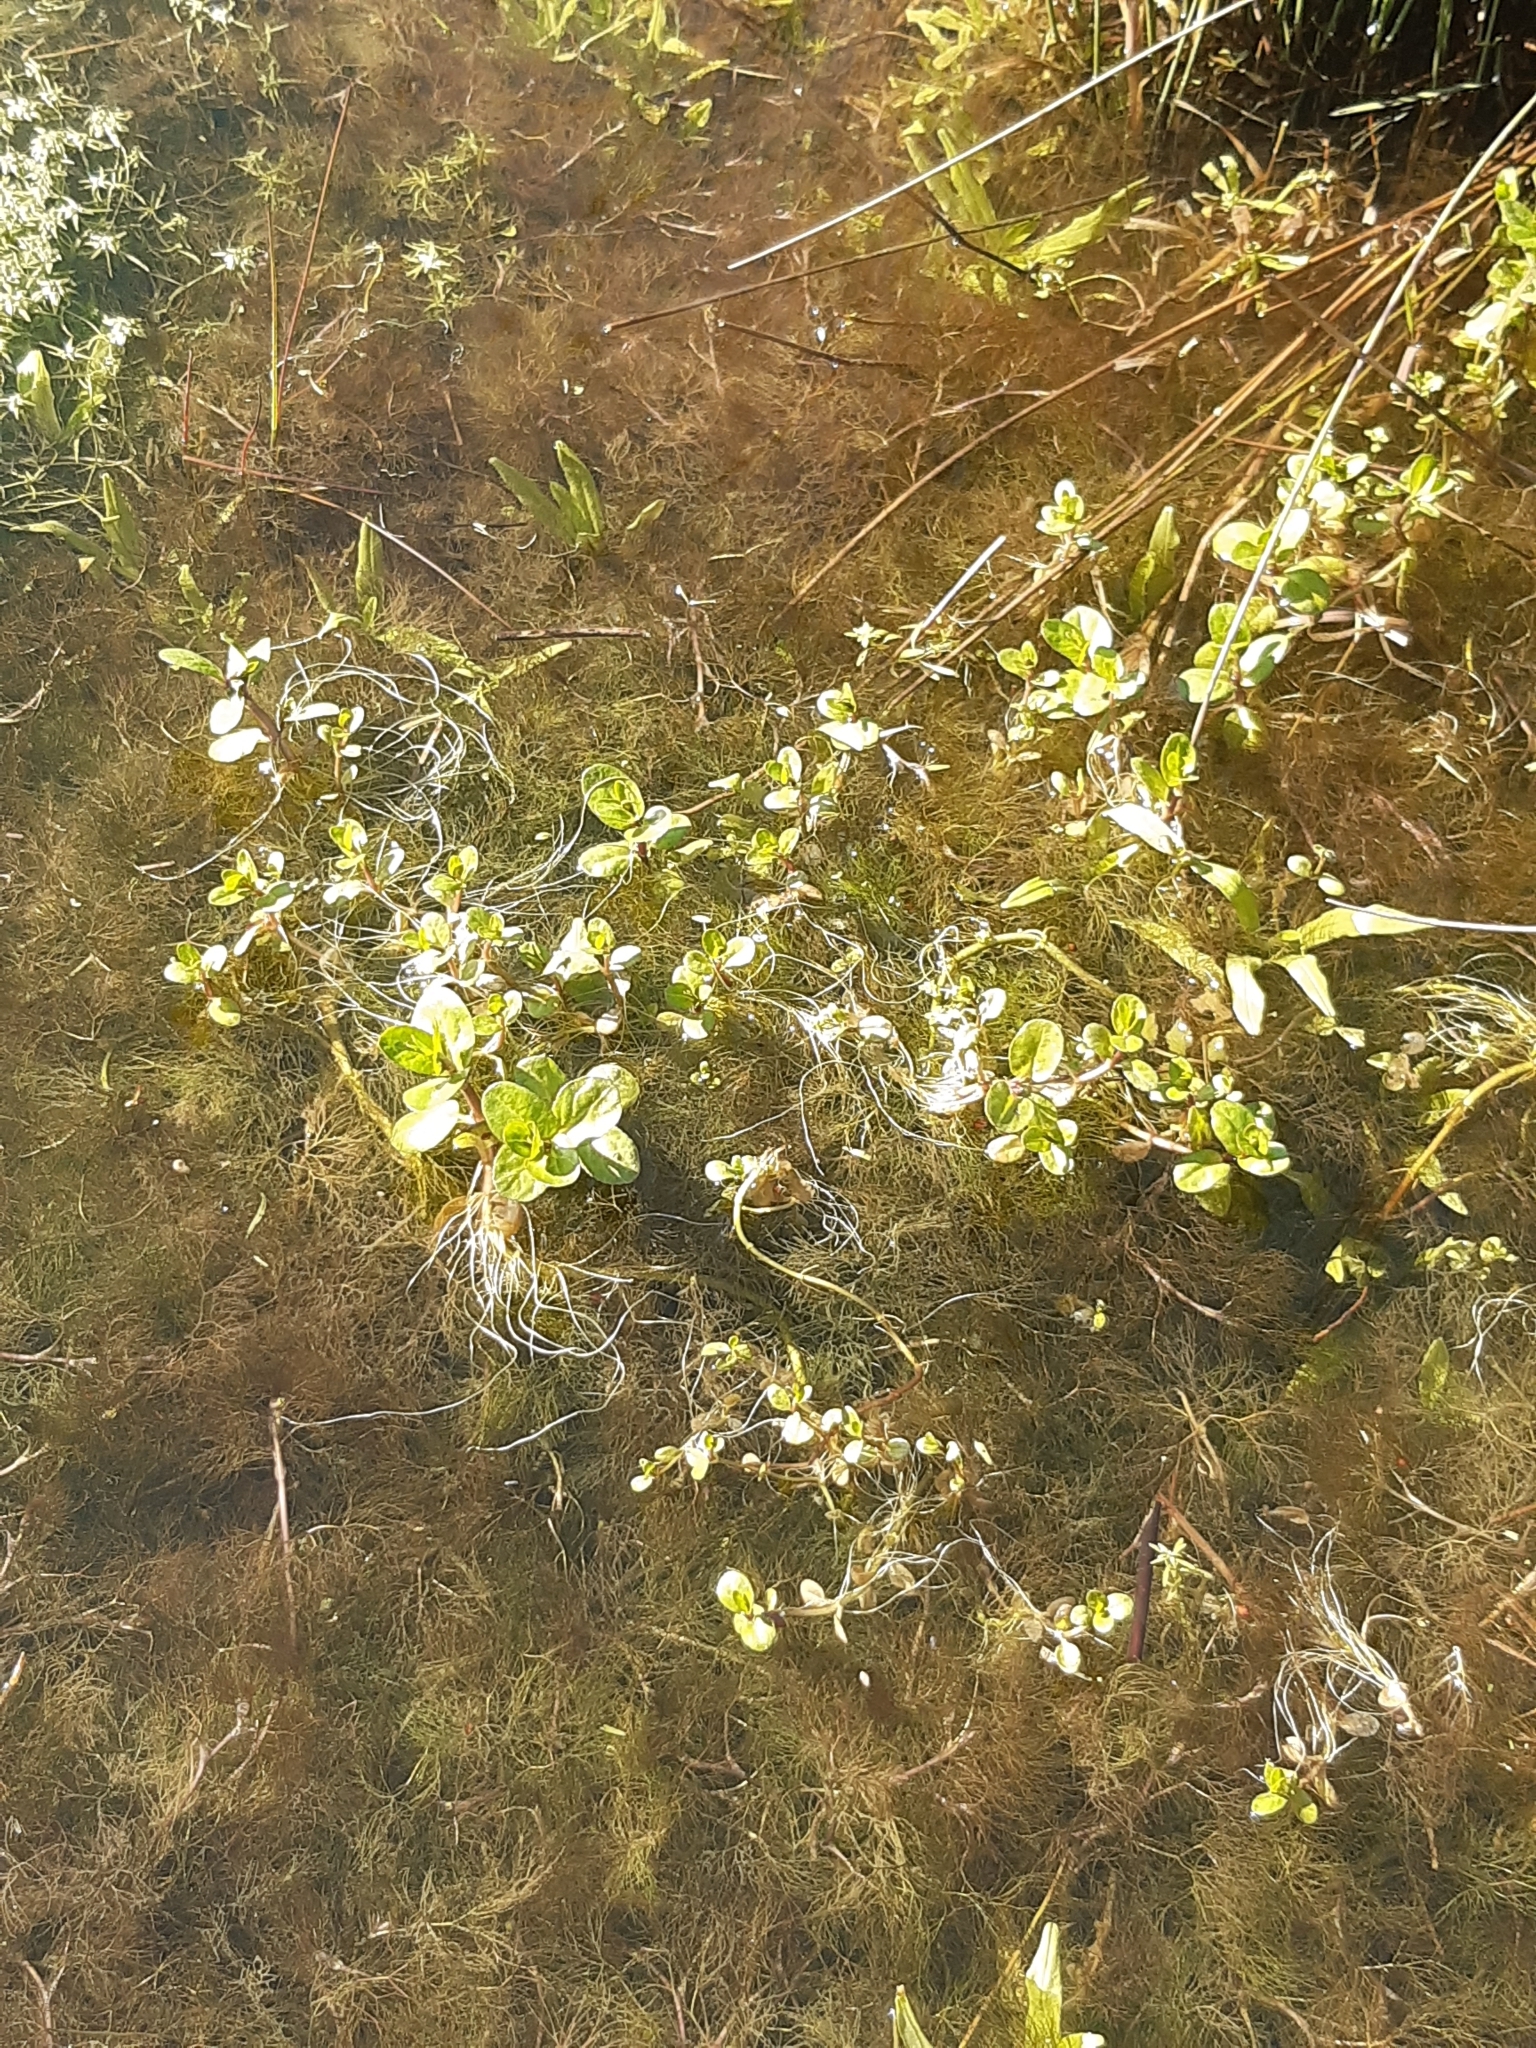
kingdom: Plantae
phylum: Tracheophyta
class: Magnoliopsida
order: Lamiales
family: Plantaginaceae
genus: Veronica
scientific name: Veronica beccabunga
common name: Brooklime
